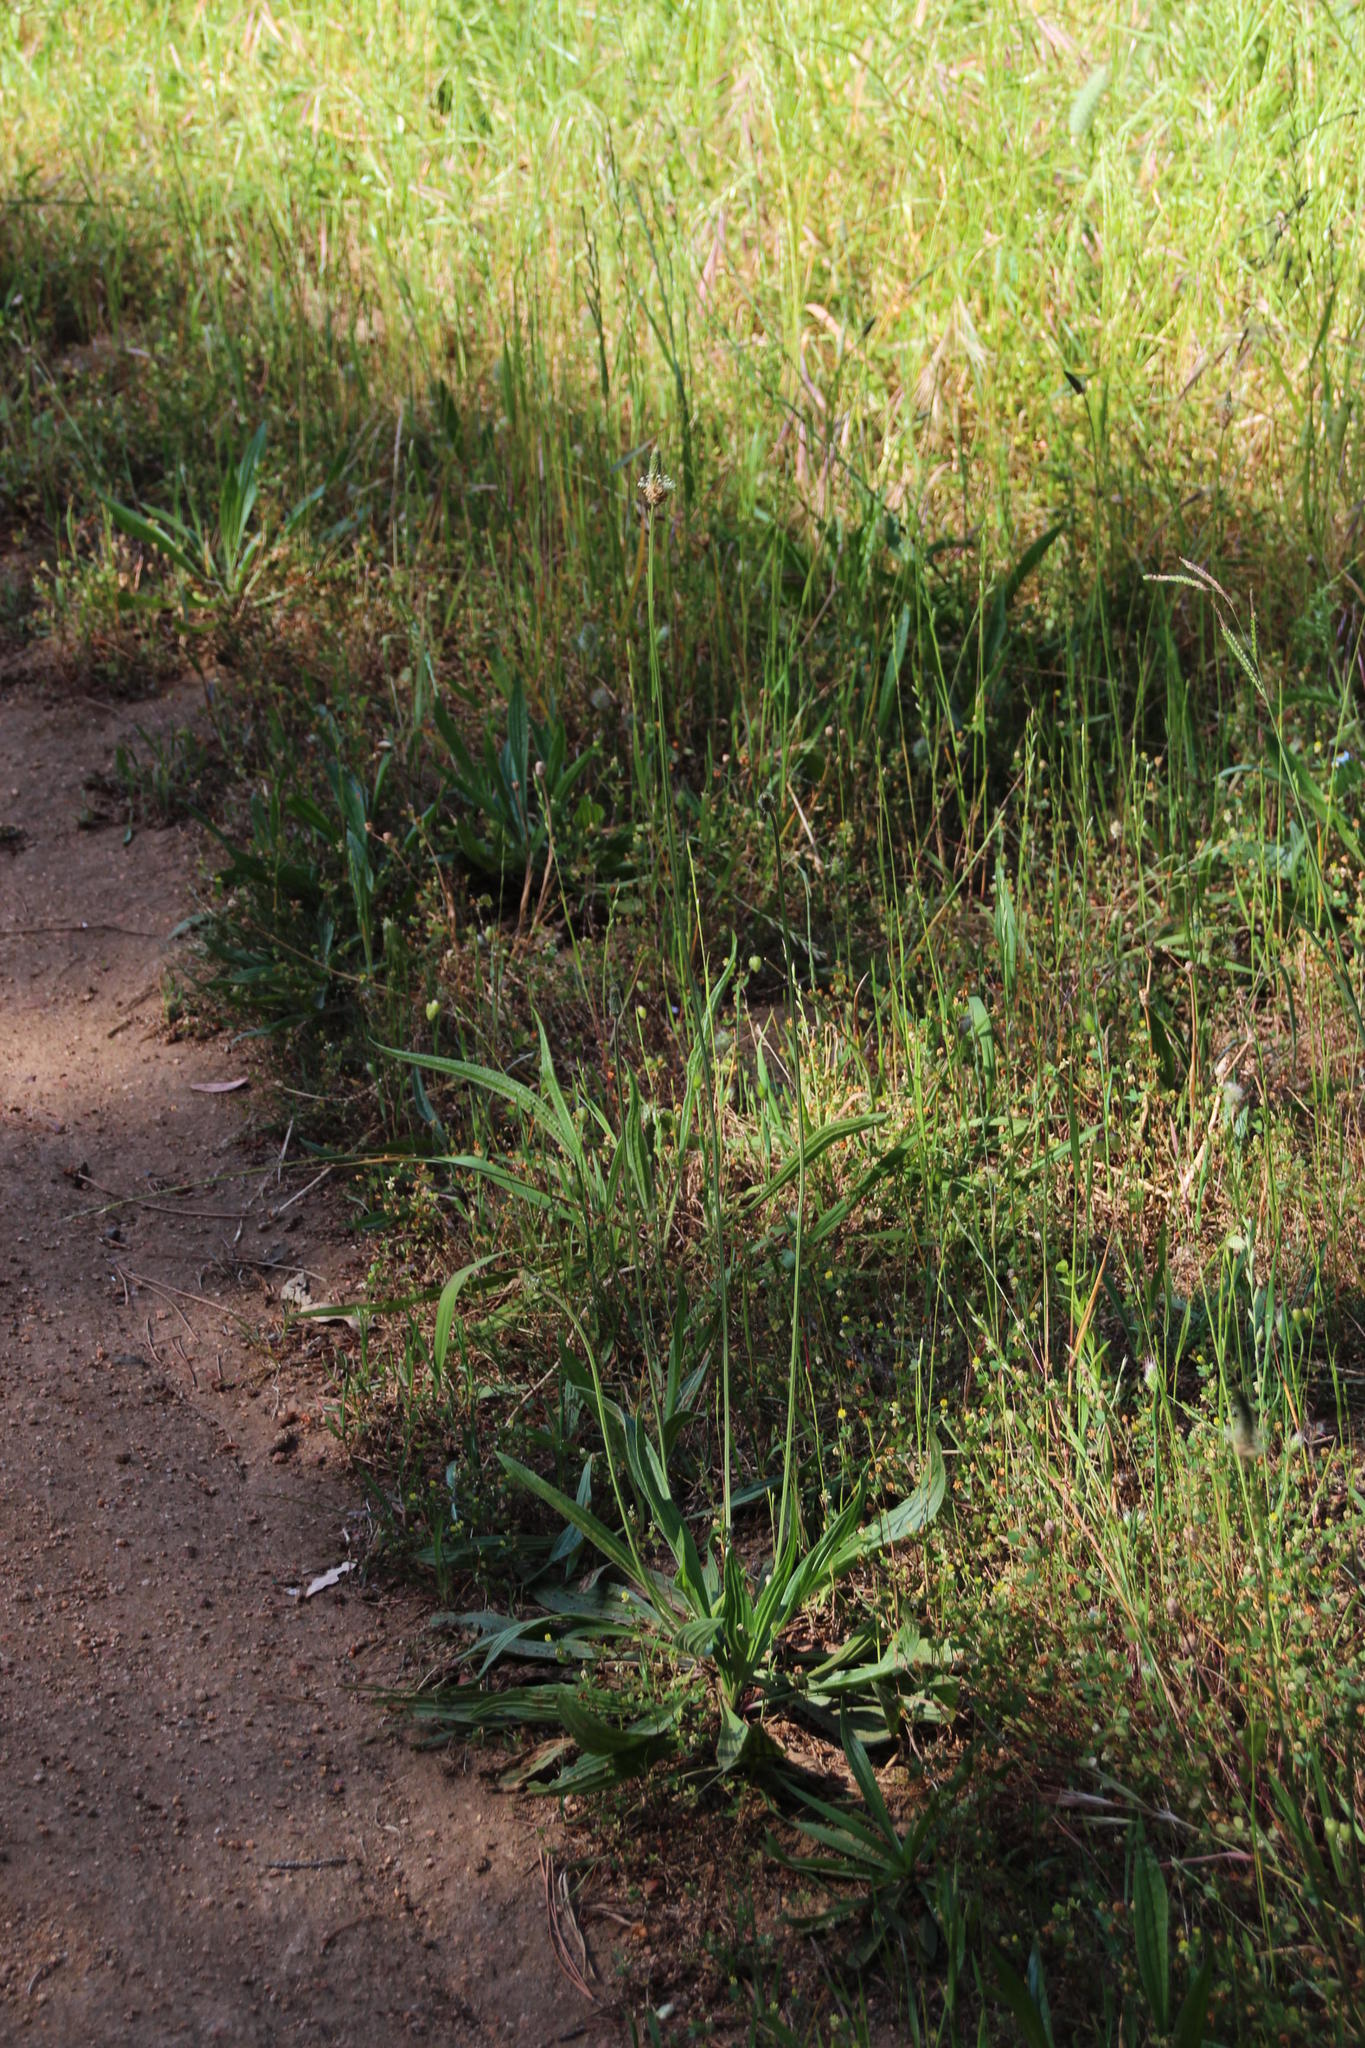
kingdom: Plantae
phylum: Tracheophyta
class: Magnoliopsida
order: Lamiales
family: Plantaginaceae
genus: Plantago
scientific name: Plantago lanceolata
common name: Ribwort plantain
